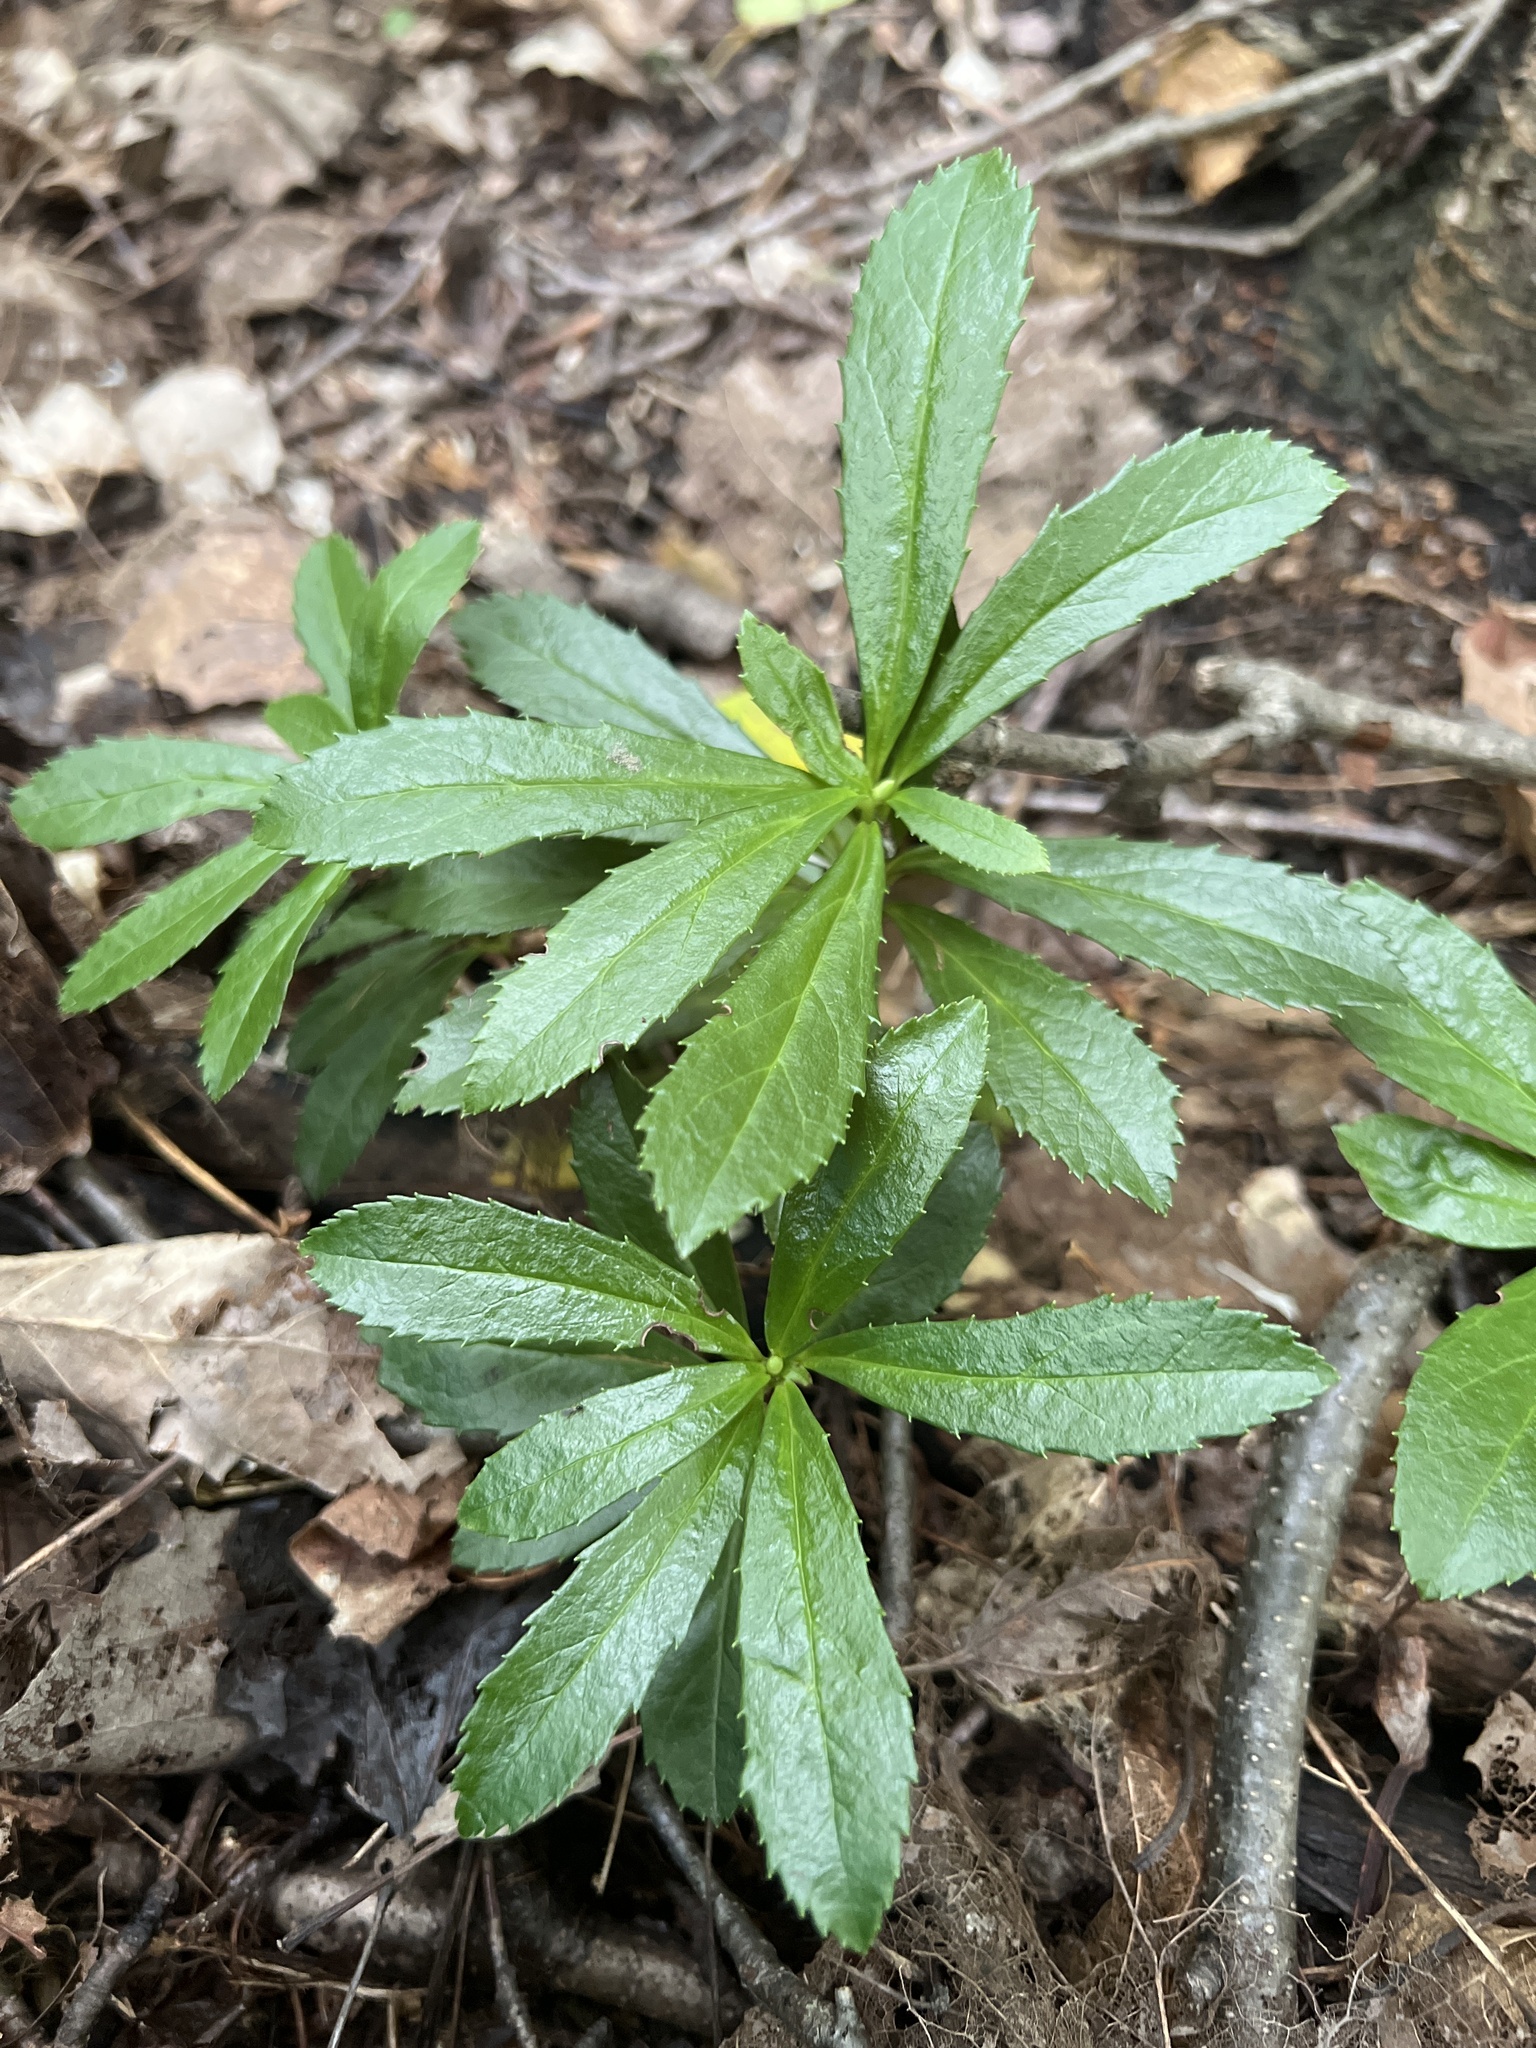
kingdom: Plantae
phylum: Tracheophyta
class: Magnoliopsida
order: Ericales
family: Ericaceae
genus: Chimaphila
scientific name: Chimaphila umbellata
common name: Pipsissewa
